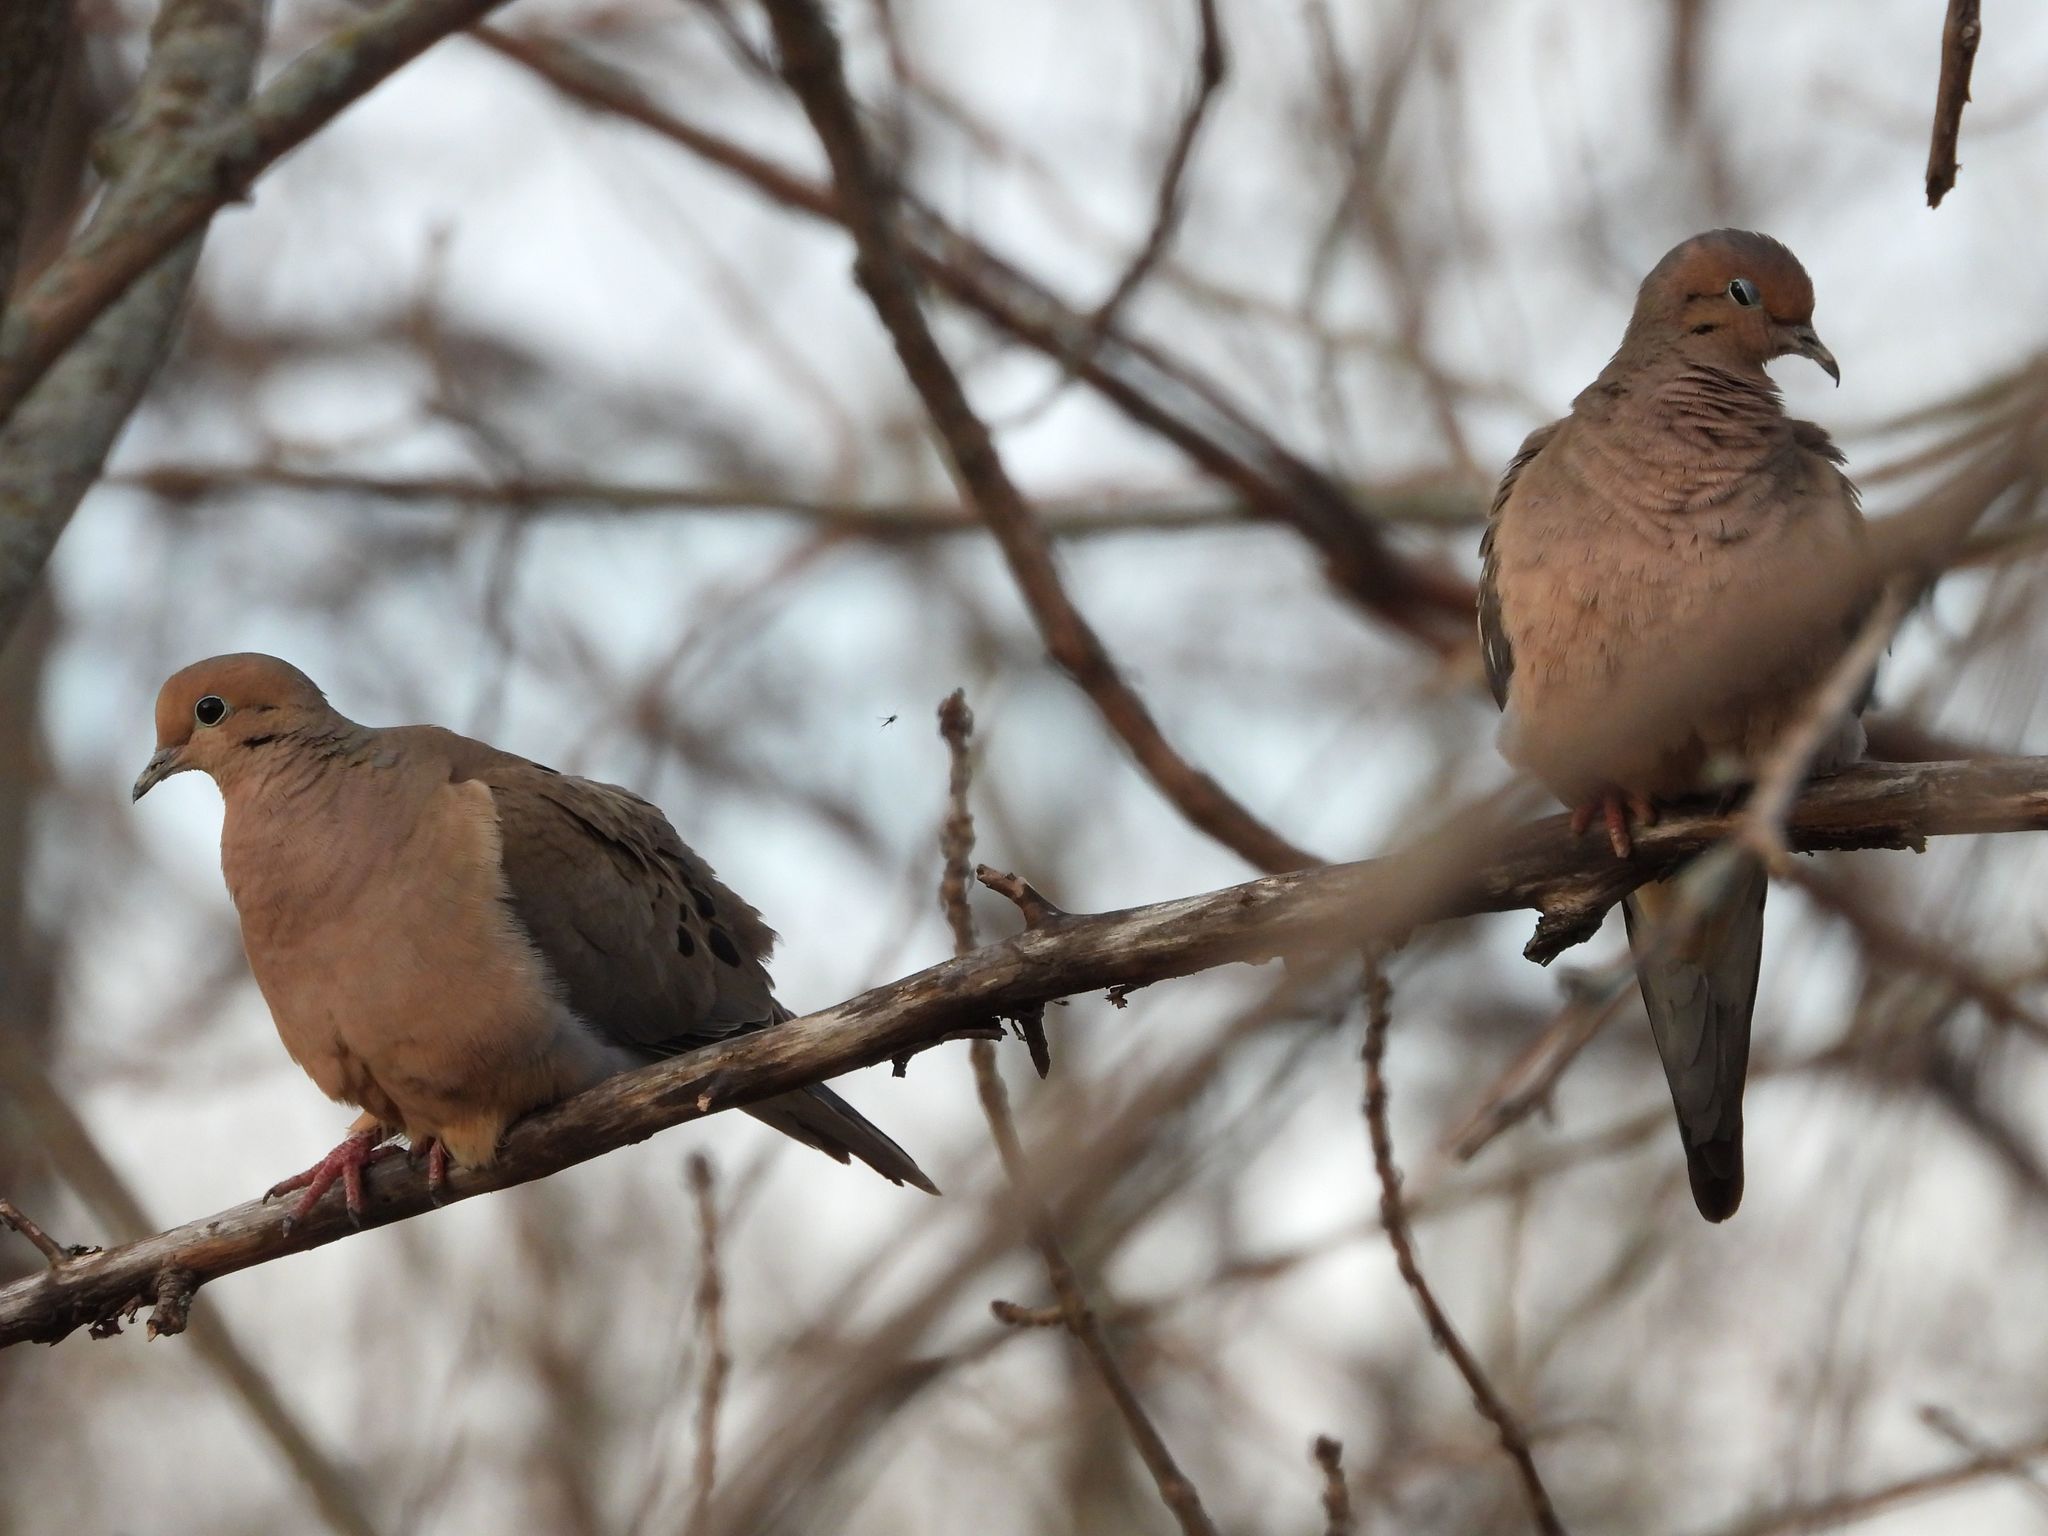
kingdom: Animalia
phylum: Chordata
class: Aves
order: Columbiformes
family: Columbidae
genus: Zenaida
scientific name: Zenaida macroura
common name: Mourning dove
